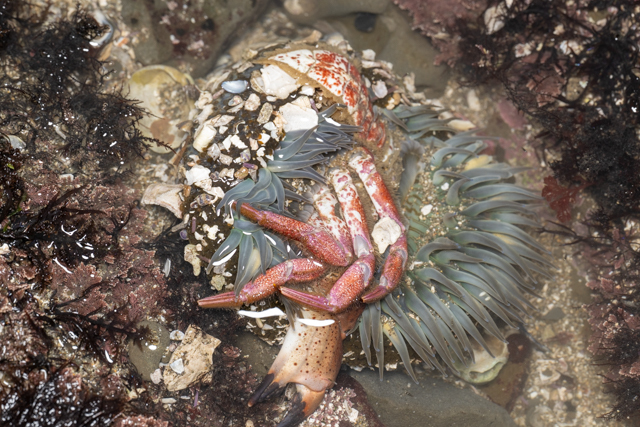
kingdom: Animalia
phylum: Cnidaria
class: Anthozoa
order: Actiniaria
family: Actiniidae
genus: Anthopleura
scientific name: Anthopleura sola
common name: Sun anemone
